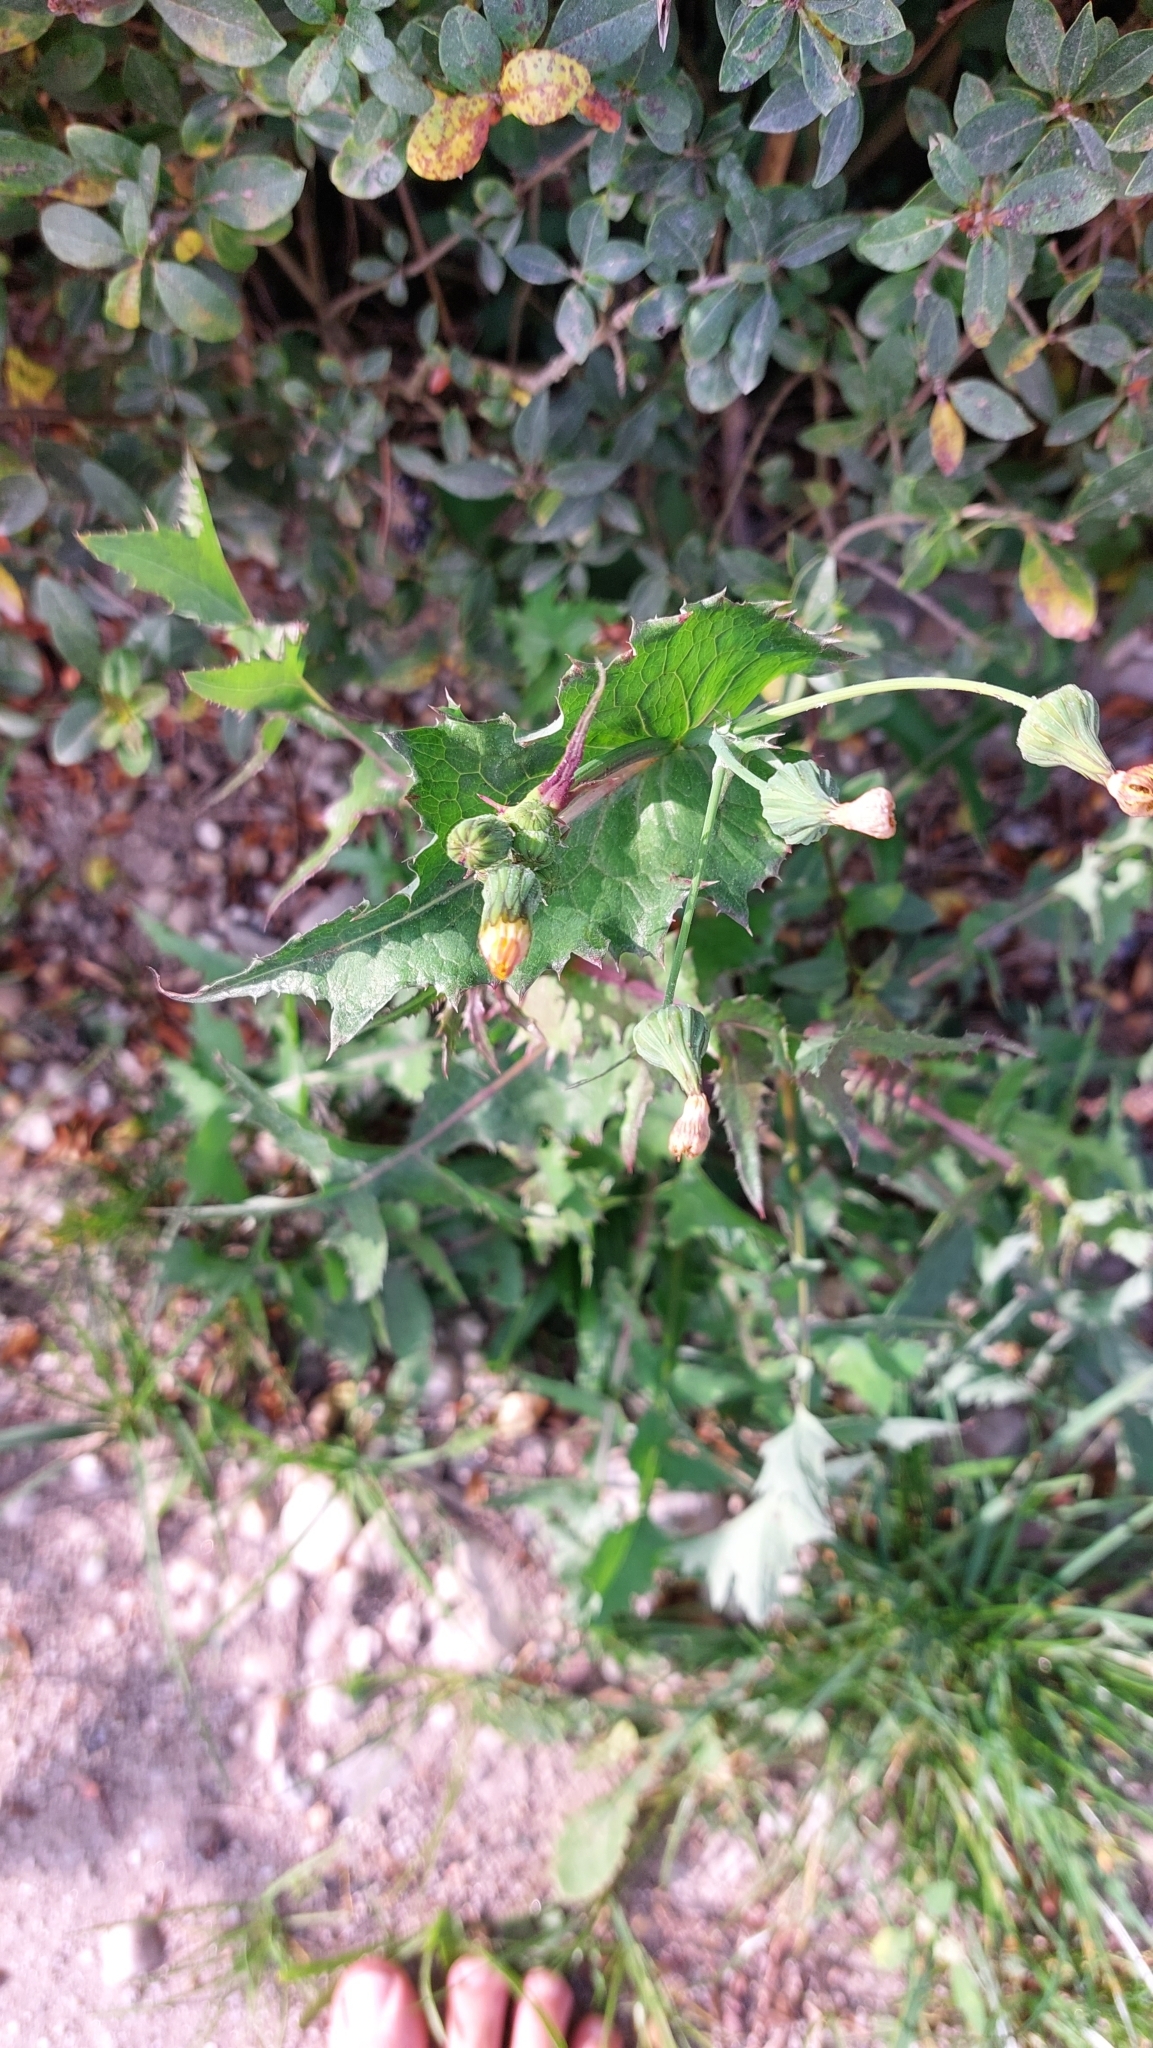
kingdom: Plantae
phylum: Tracheophyta
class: Magnoliopsida
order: Asterales
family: Asteraceae
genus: Sonchus
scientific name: Sonchus oleraceus
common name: Common sowthistle
